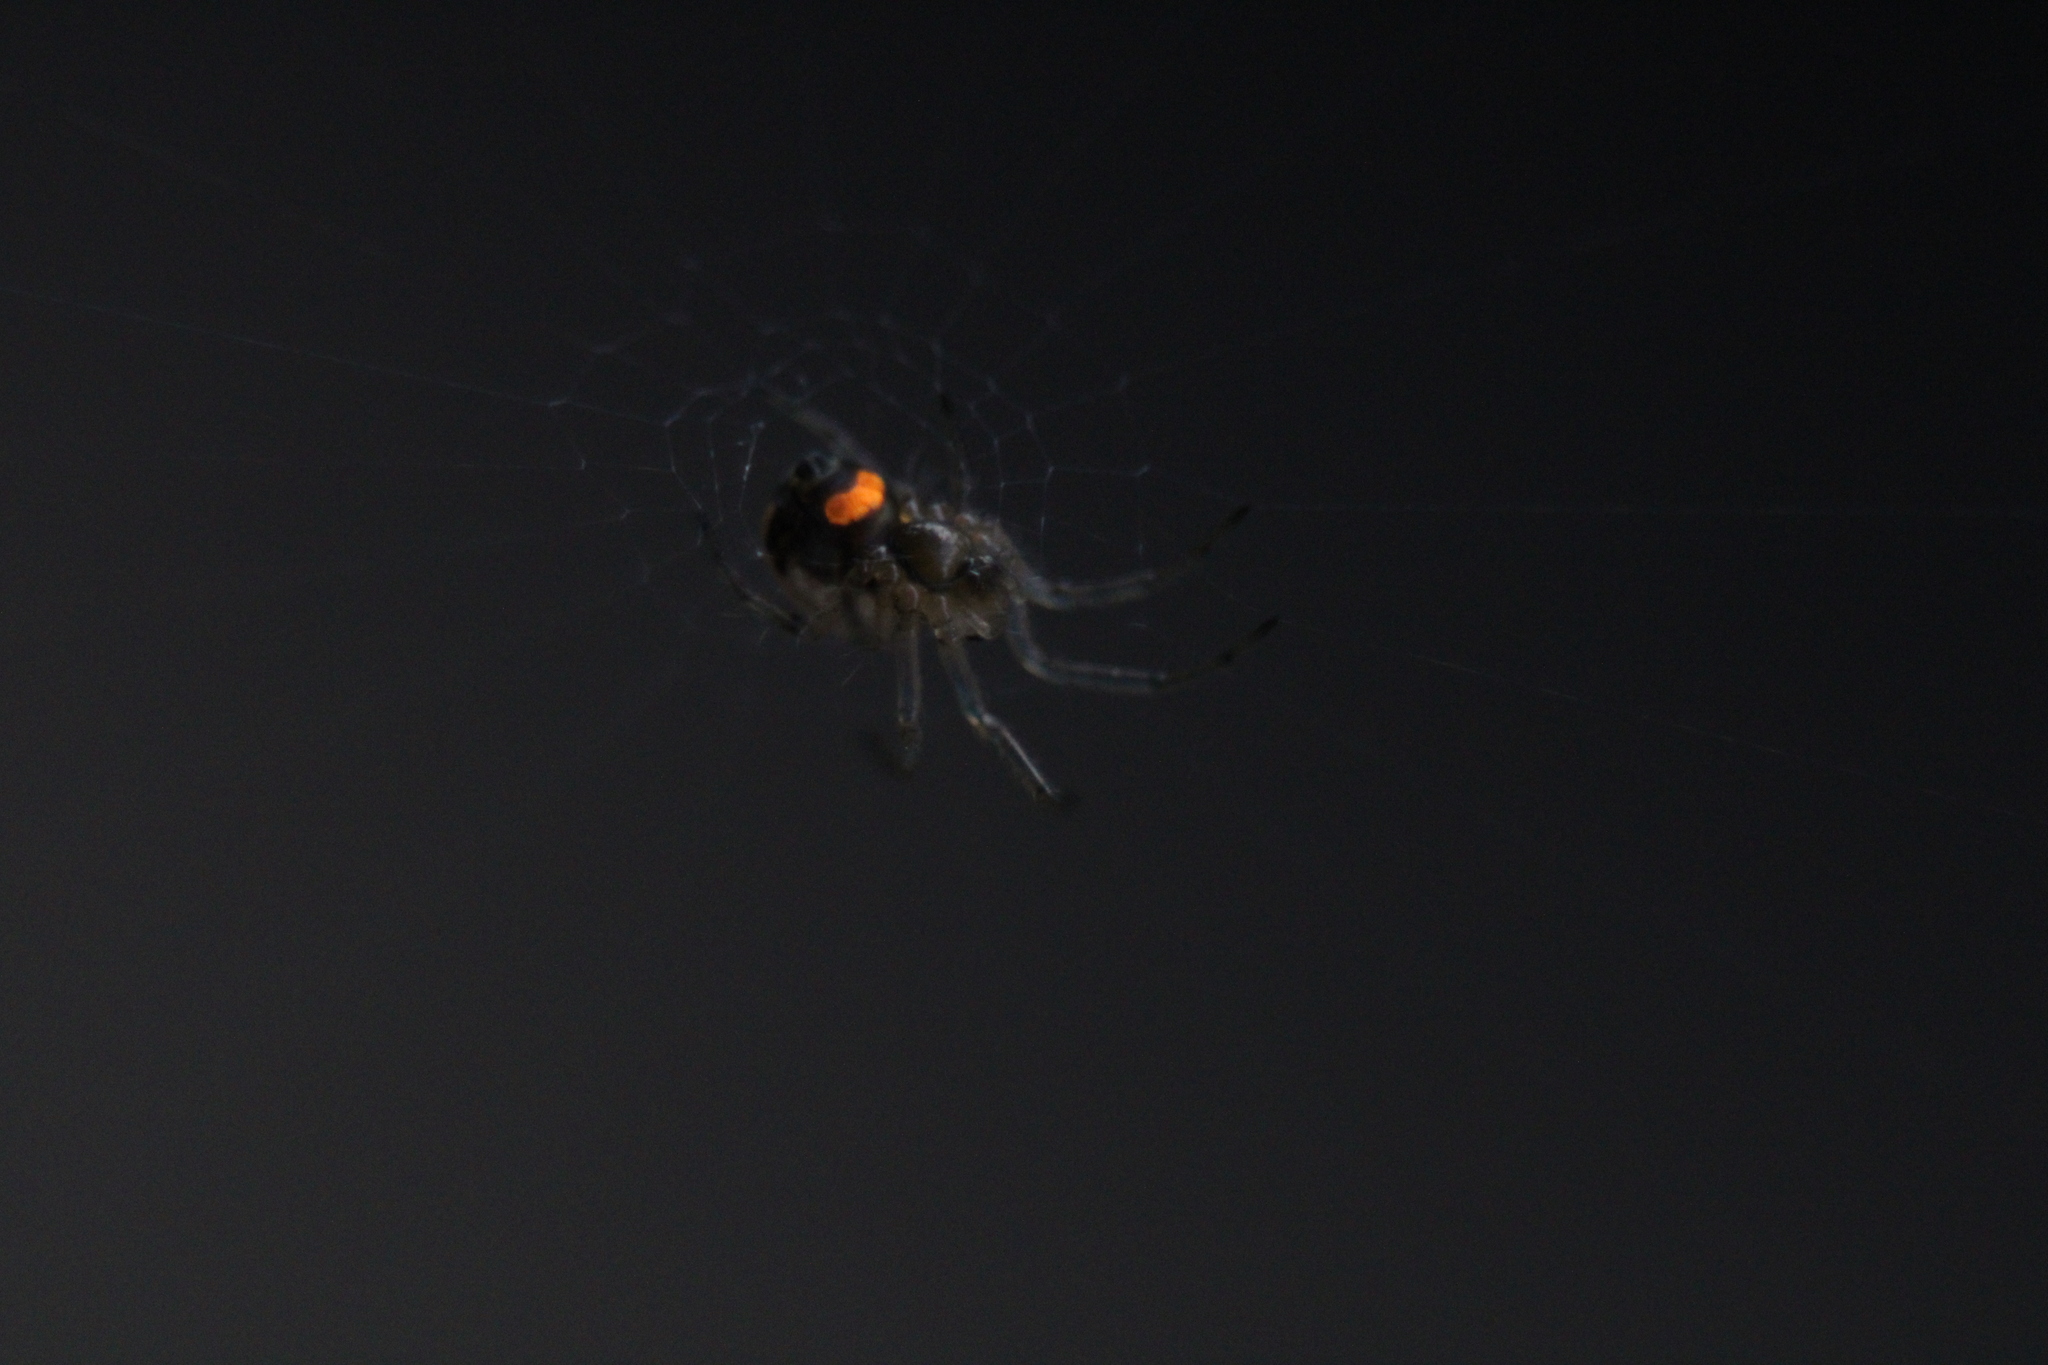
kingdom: Animalia
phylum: Arthropoda
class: Arachnida
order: Araneae
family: Tetragnathidae
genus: Leucauge
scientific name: Leucauge venusta
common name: Longjawed orb weavers
